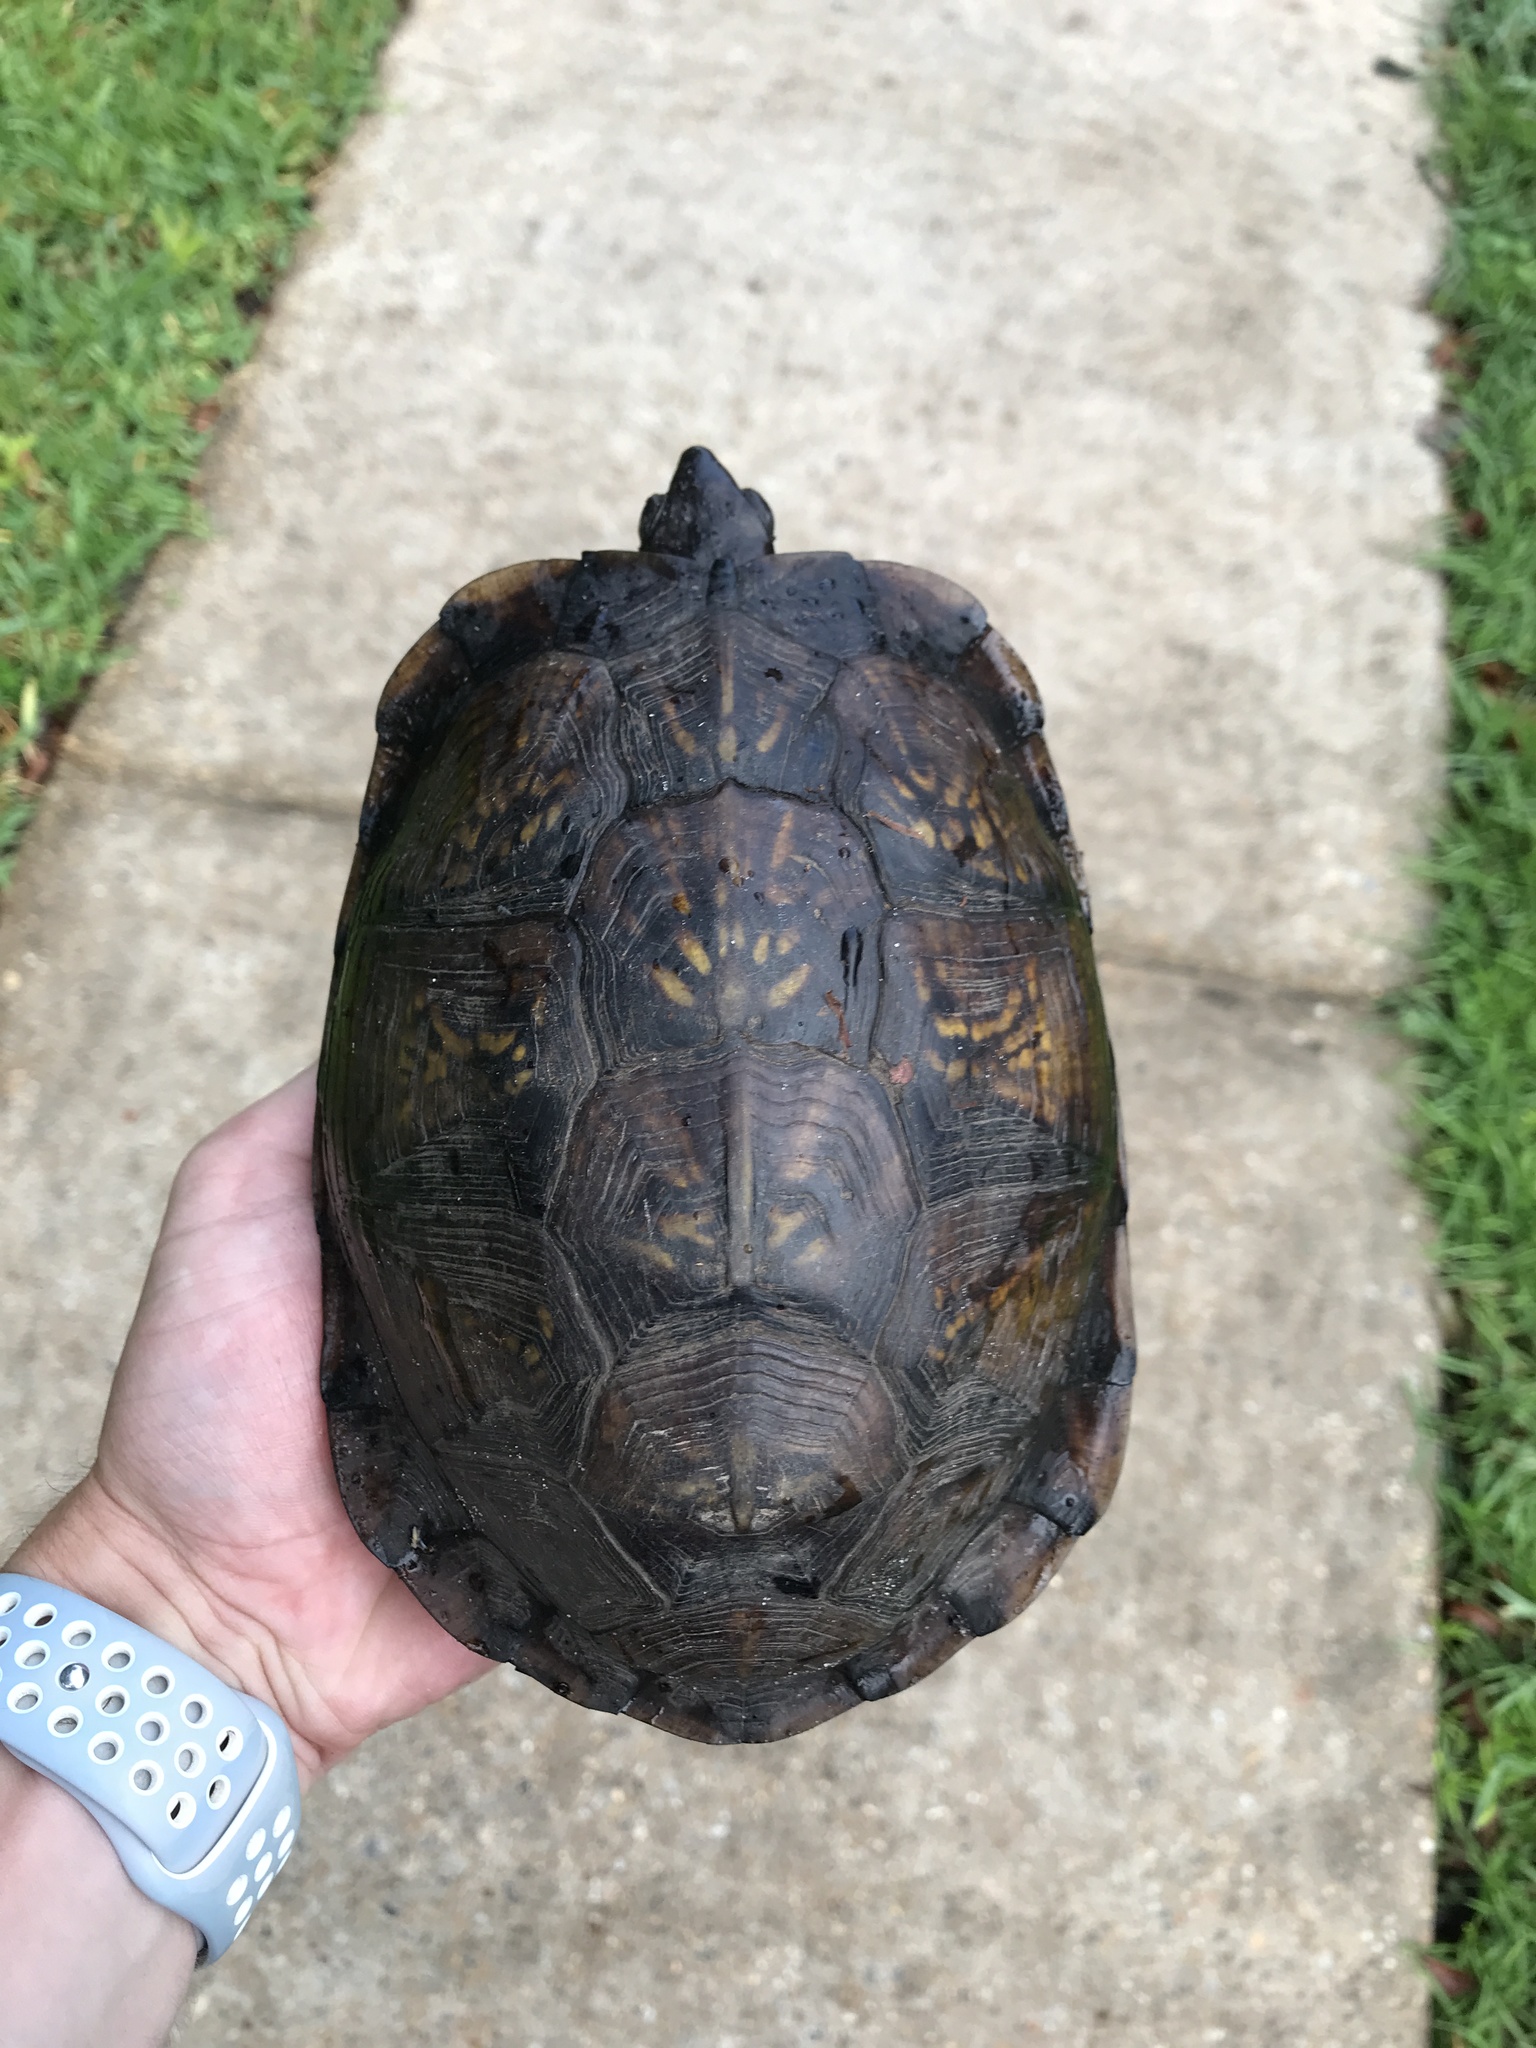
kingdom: Animalia
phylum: Chordata
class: Testudines
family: Emydidae
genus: Terrapene
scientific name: Terrapene carolina
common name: Common box turtle
